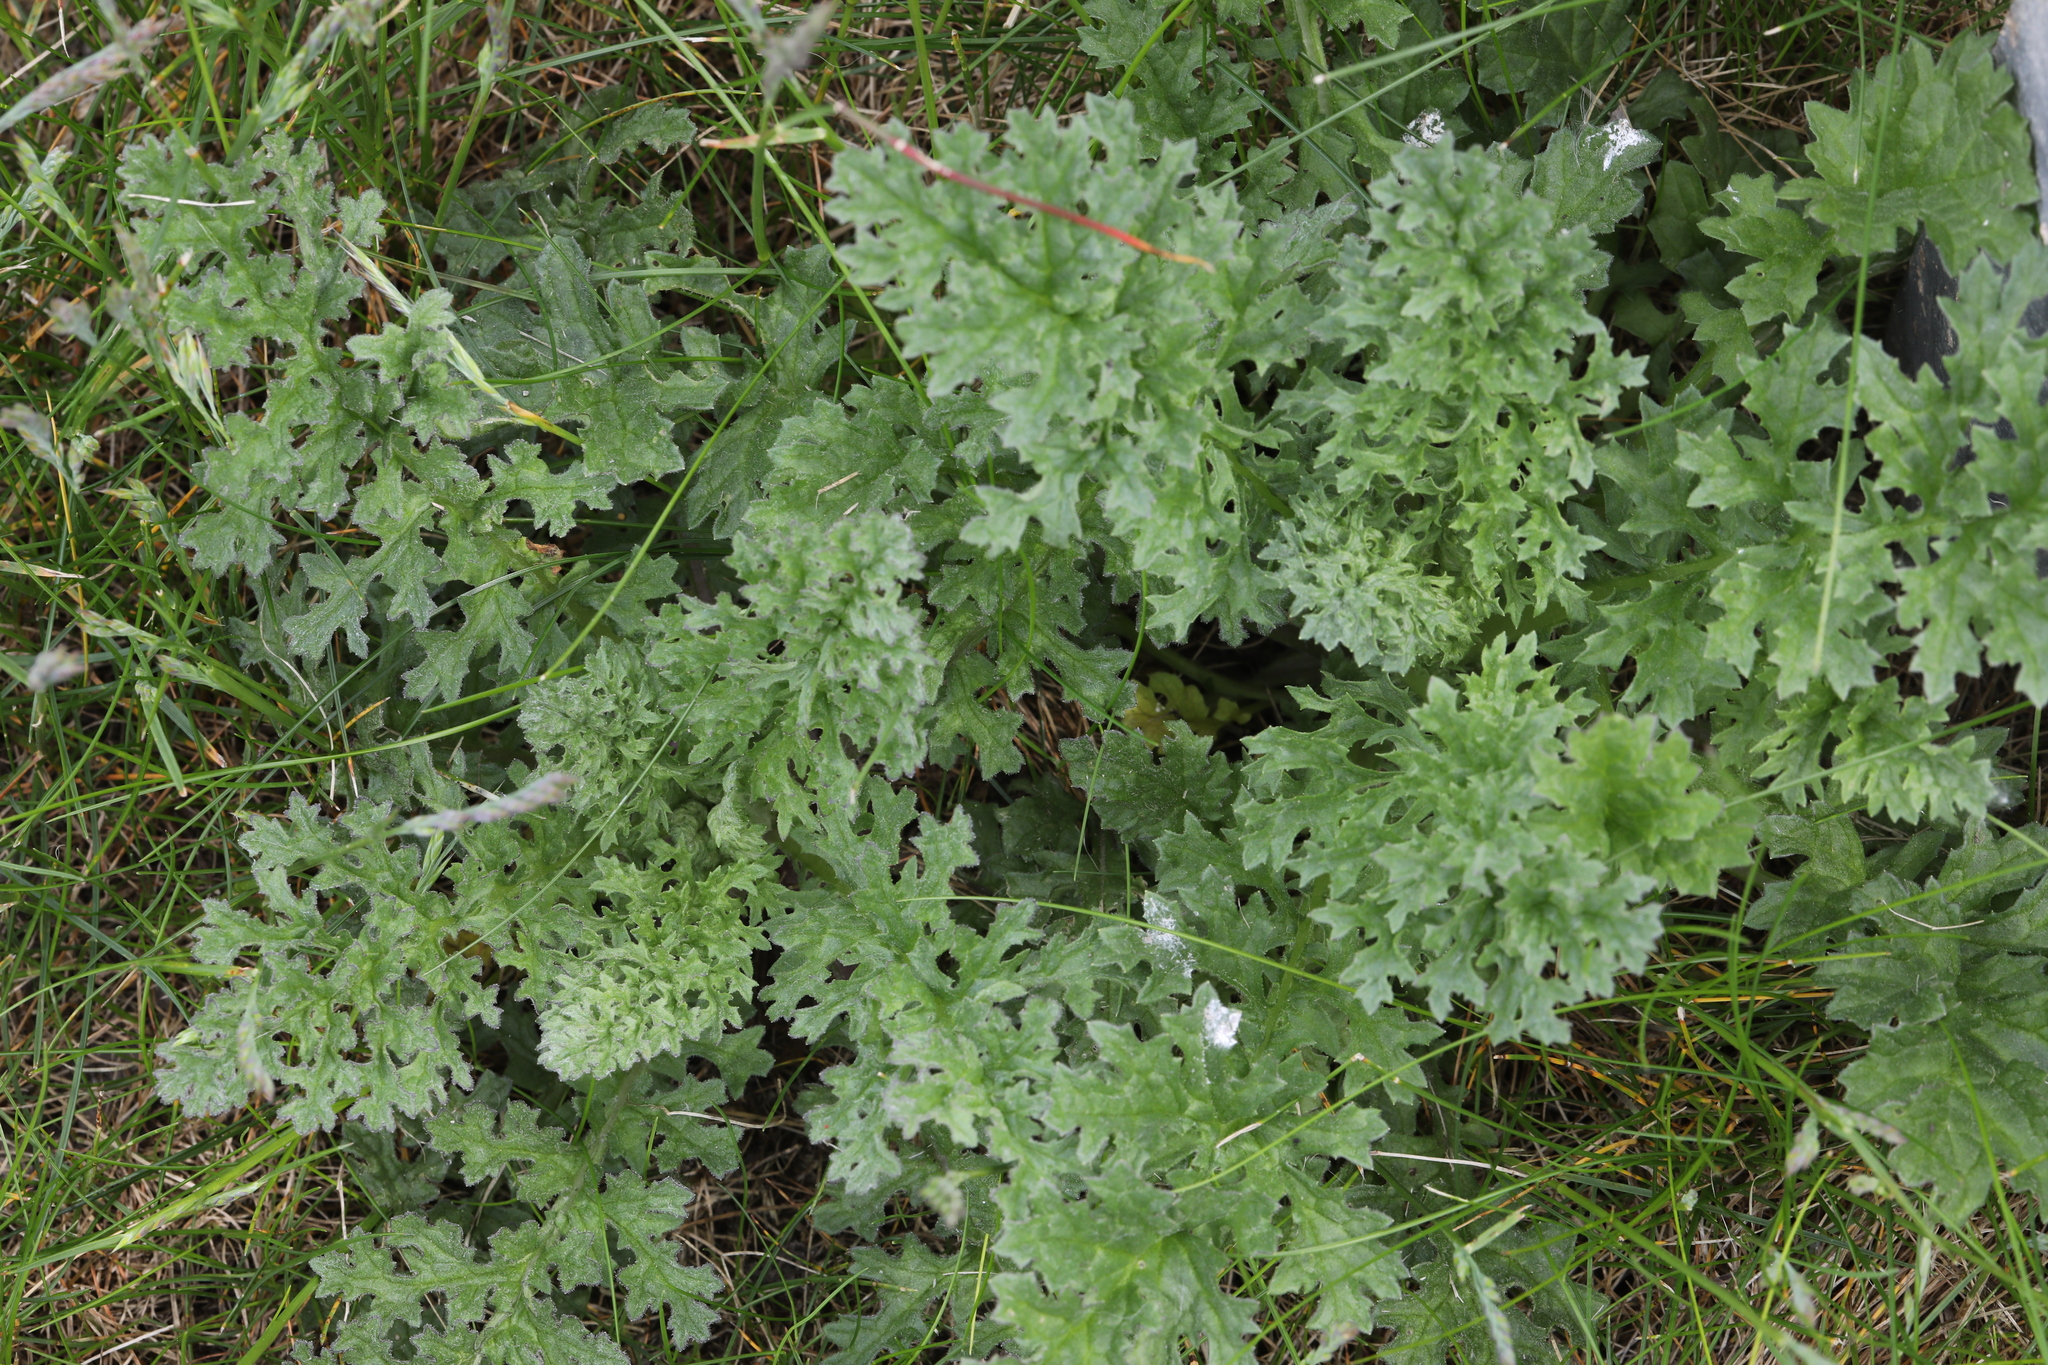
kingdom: Plantae
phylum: Tracheophyta
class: Magnoliopsida
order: Asterales
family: Asteraceae
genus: Jacobaea
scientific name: Jacobaea vulgaris
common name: Stinking willie
